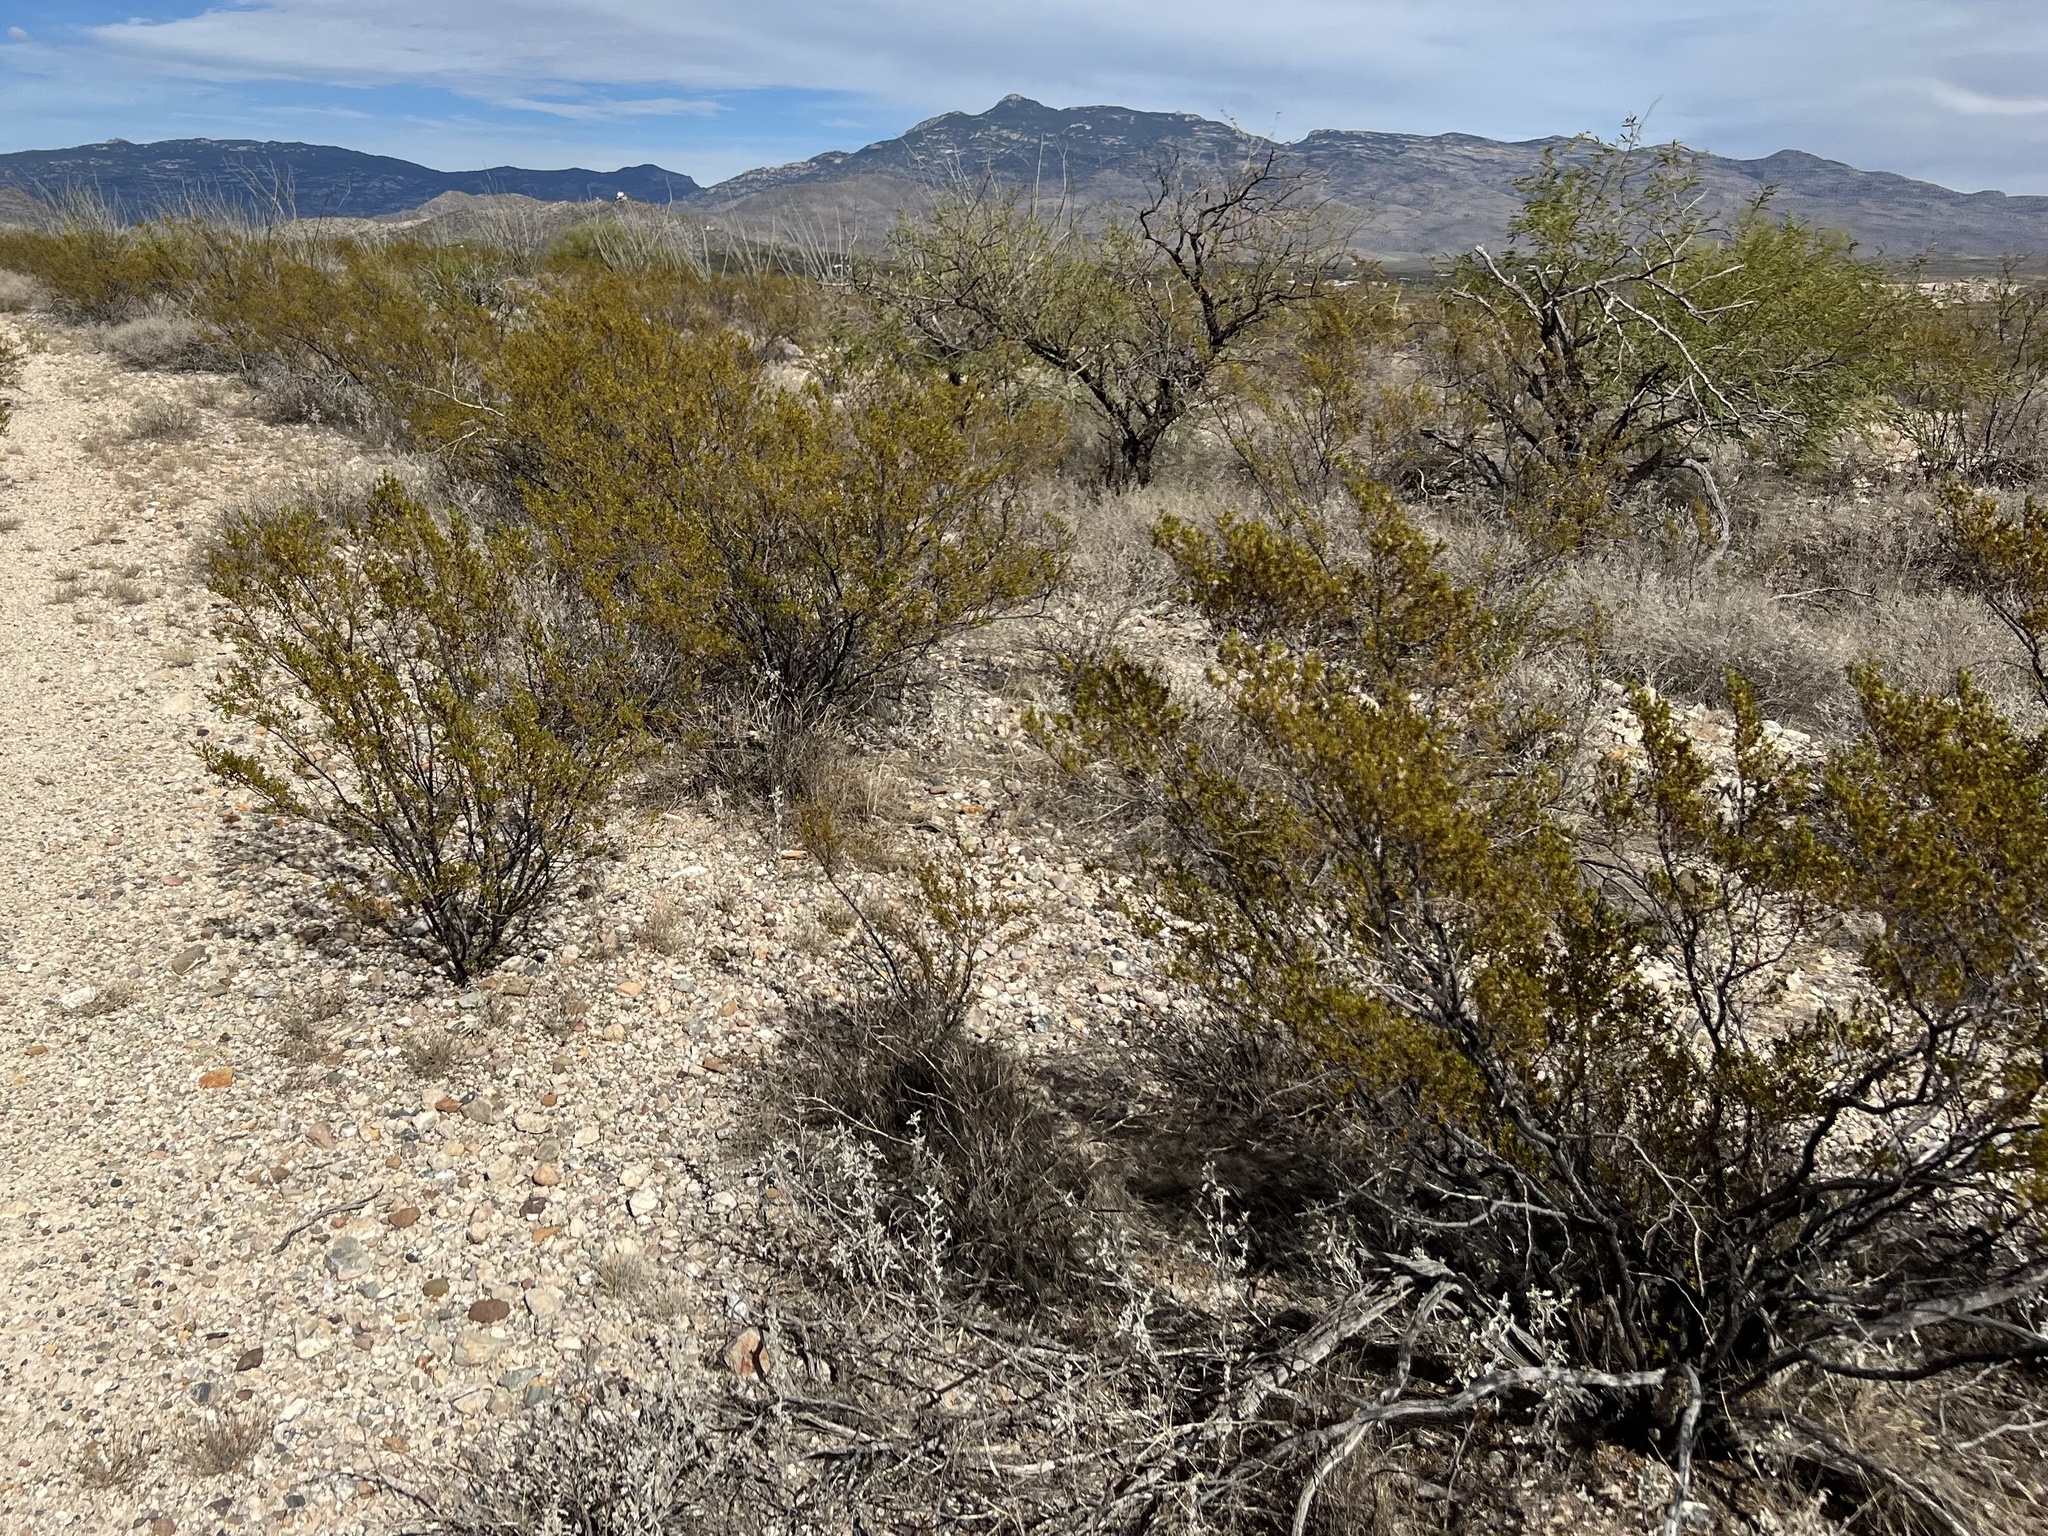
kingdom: Plantae
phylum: Tracheophyta
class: Magnoliopsida
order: Zygophyllales
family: Zygophyllaceae
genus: Larrea
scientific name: Larrea tridentata
